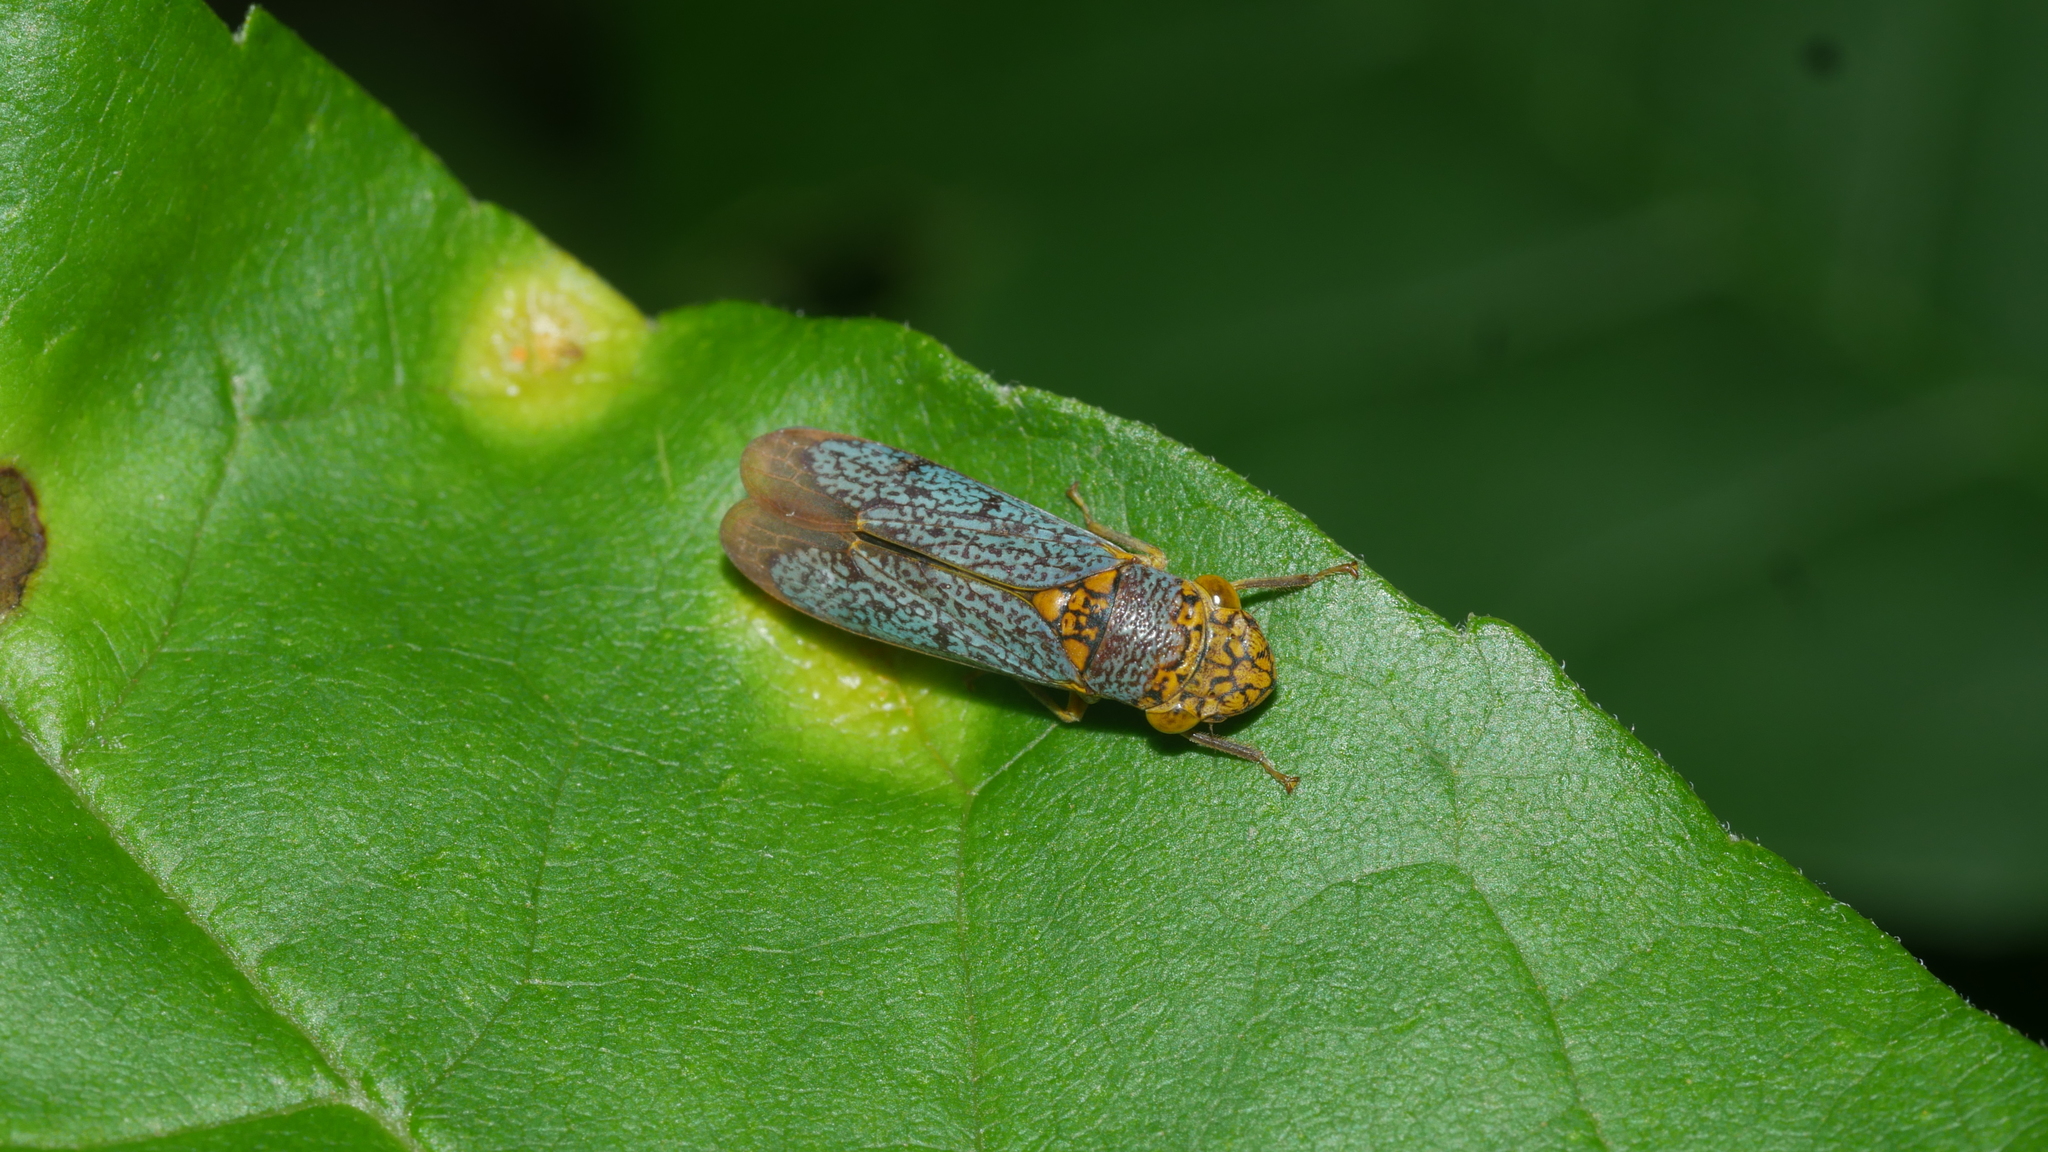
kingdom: Animalia
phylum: Arthropoda
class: Insecta
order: Hemiptera
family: Cicadellidae
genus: Oncometopia
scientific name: Oncometopia orbona
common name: Broad-headed sharpshooter
